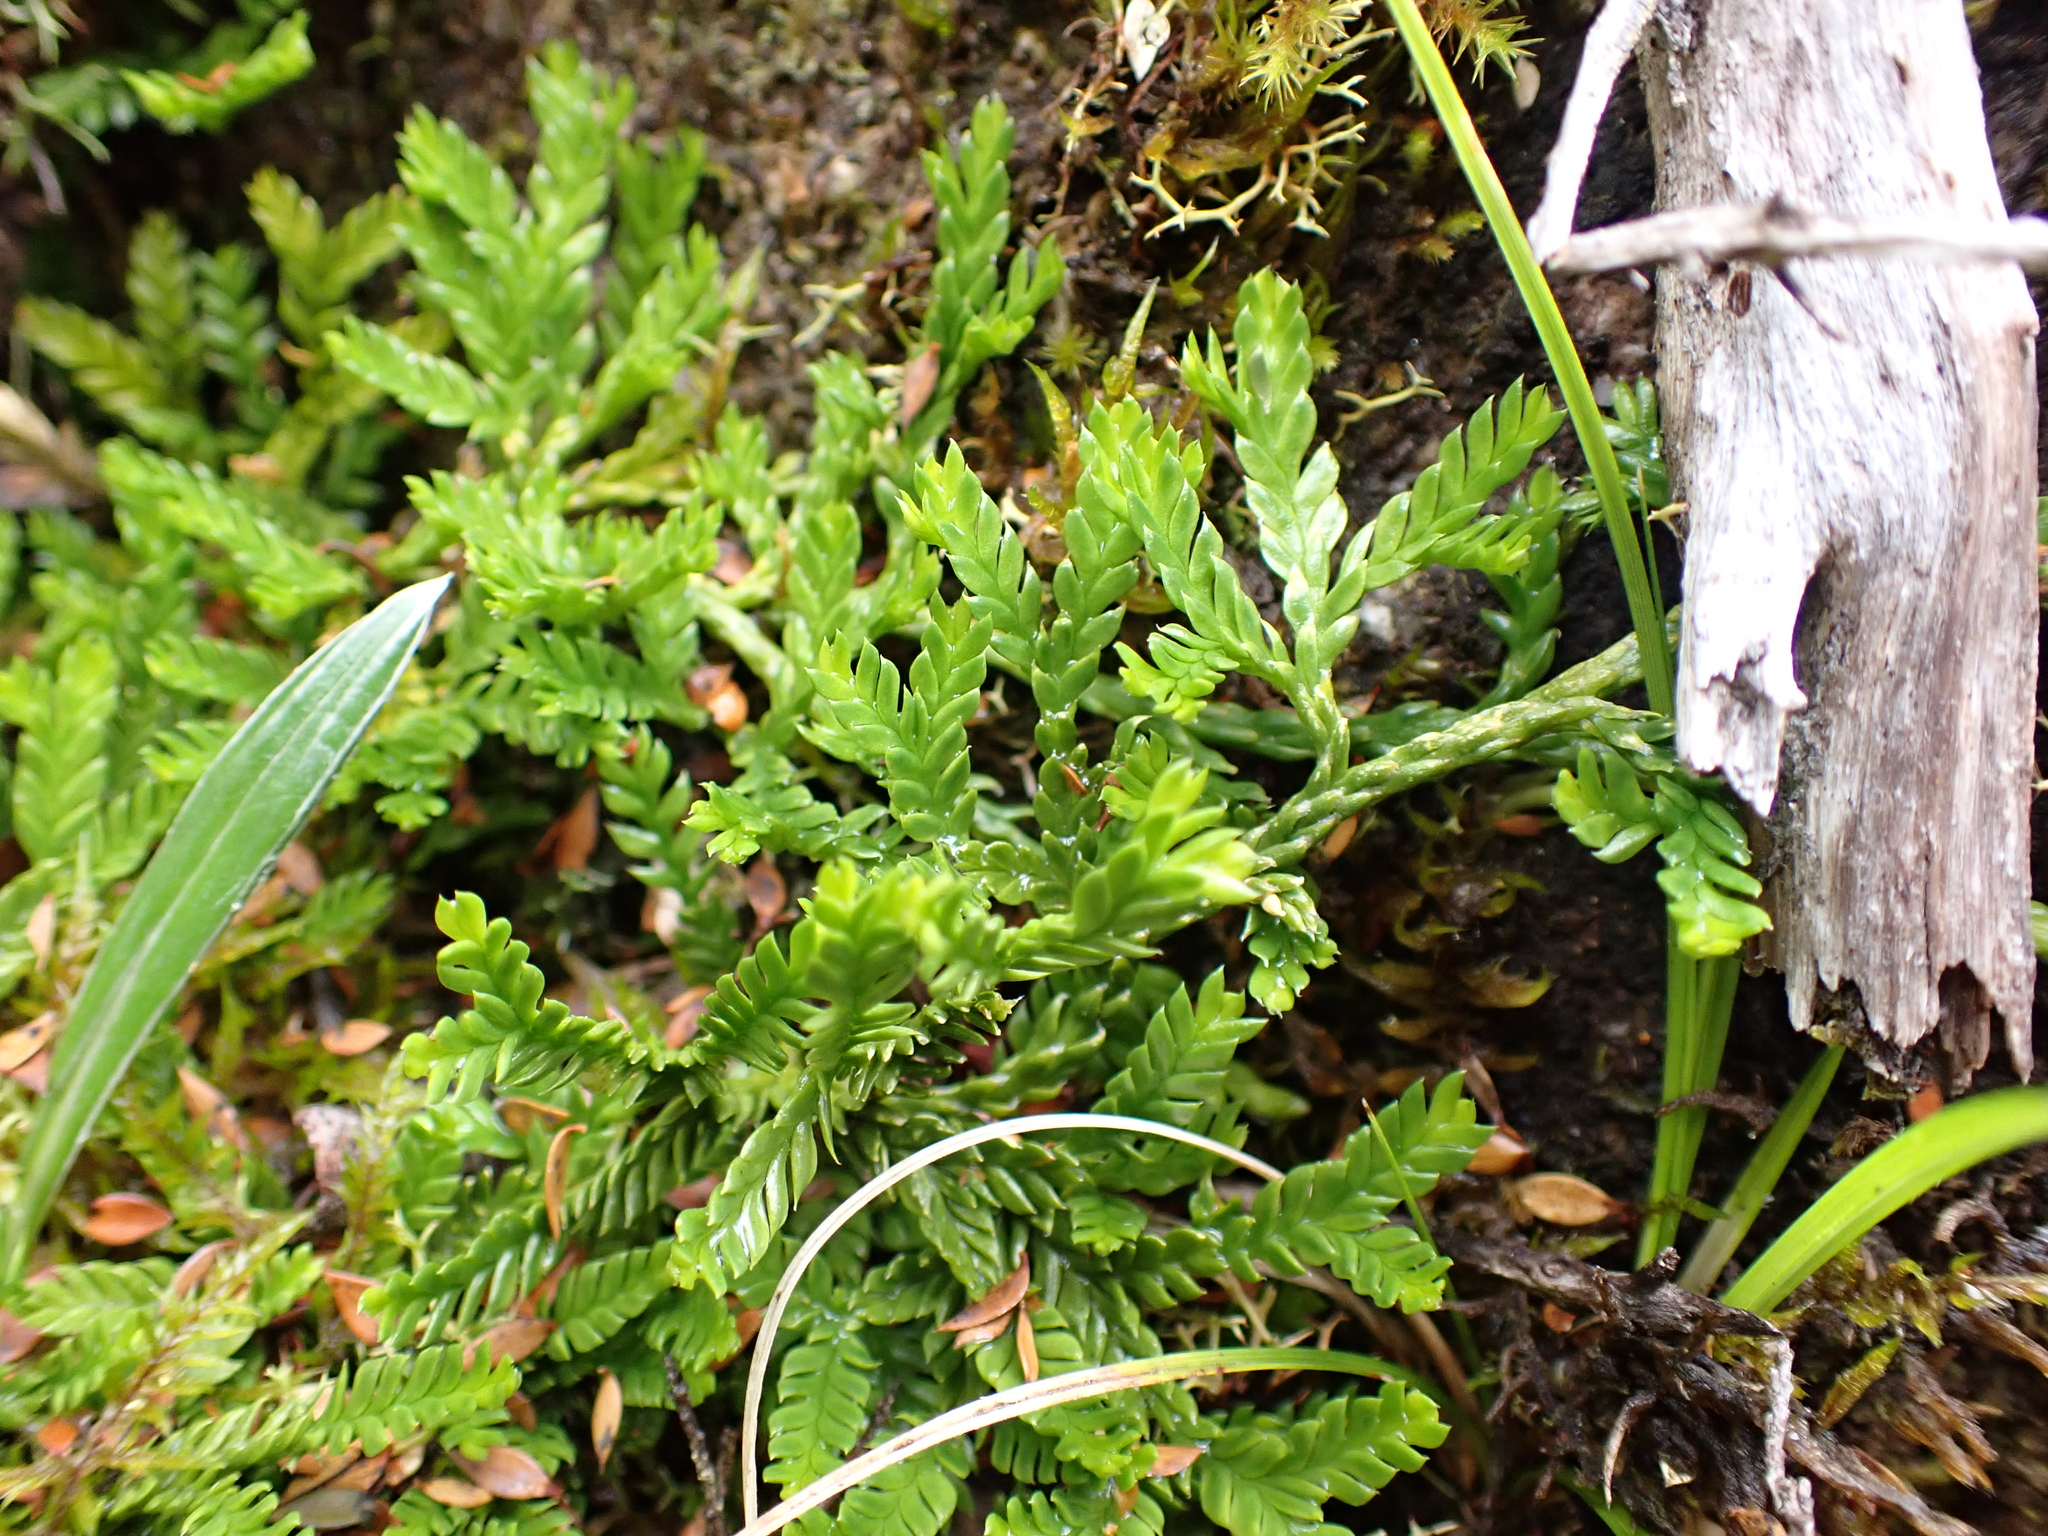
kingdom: Plantae
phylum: Tracheophyta
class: Lycopodiopsida
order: Lycopodiales
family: Lycopodiaceae
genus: Diphasium
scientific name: Diphasium scariosum
